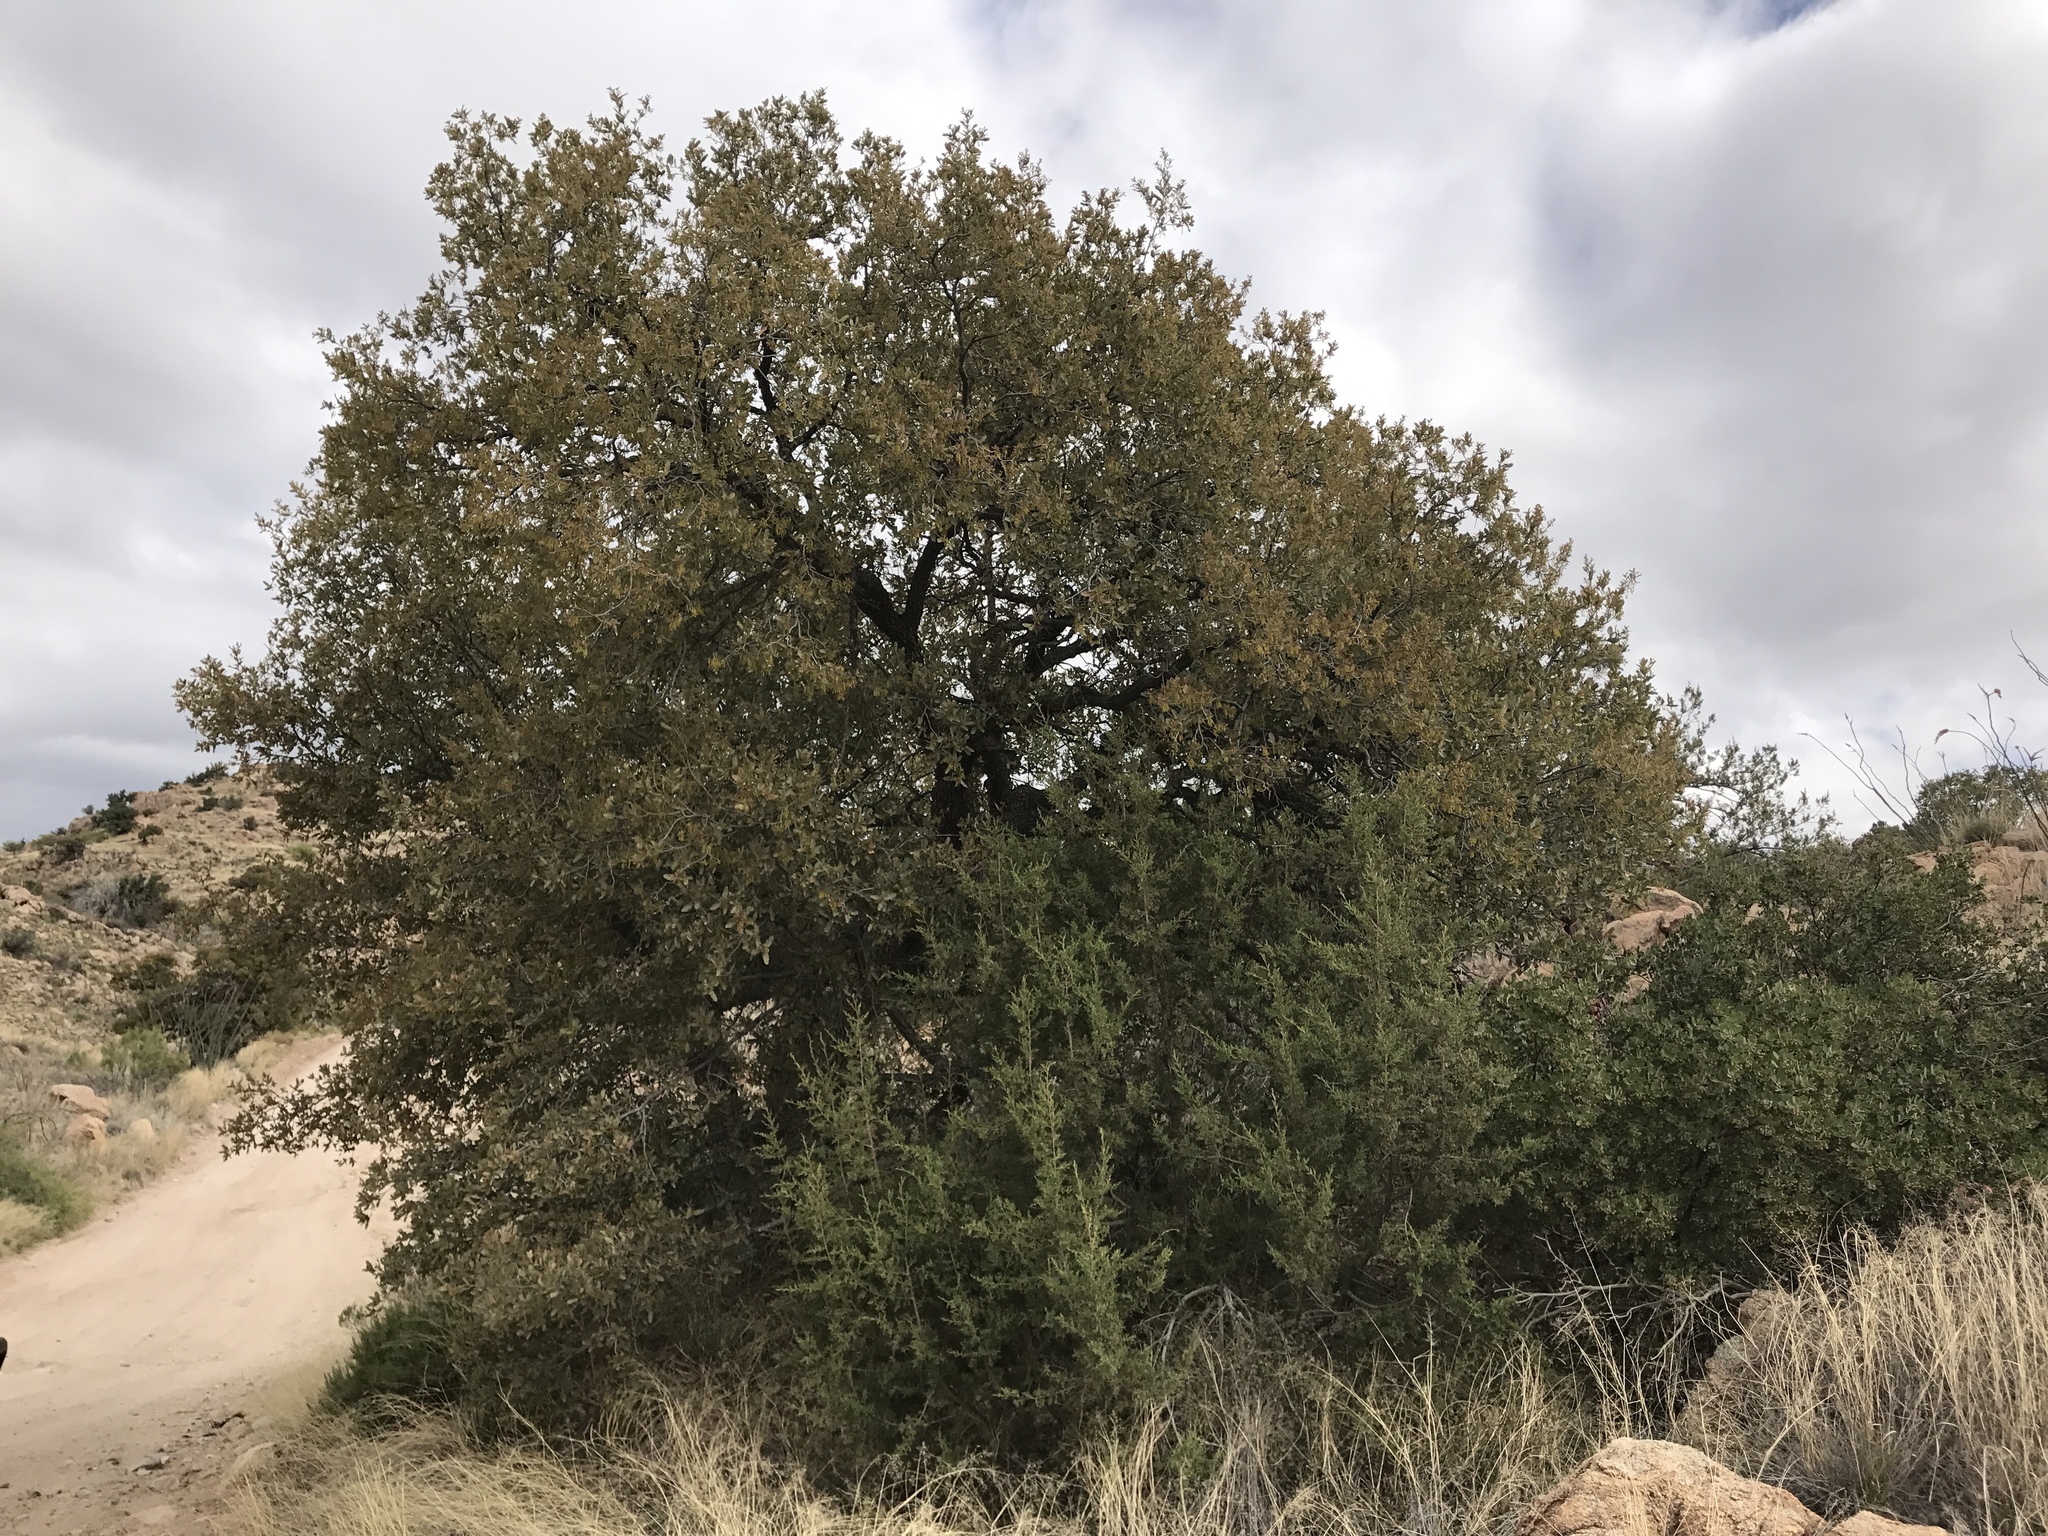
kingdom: Plantae
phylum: Tracheophyta
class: Magnoliopsida
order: Fagales
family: Fagaceae
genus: Quercus
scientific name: Quercus grisea
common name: Gray oak
